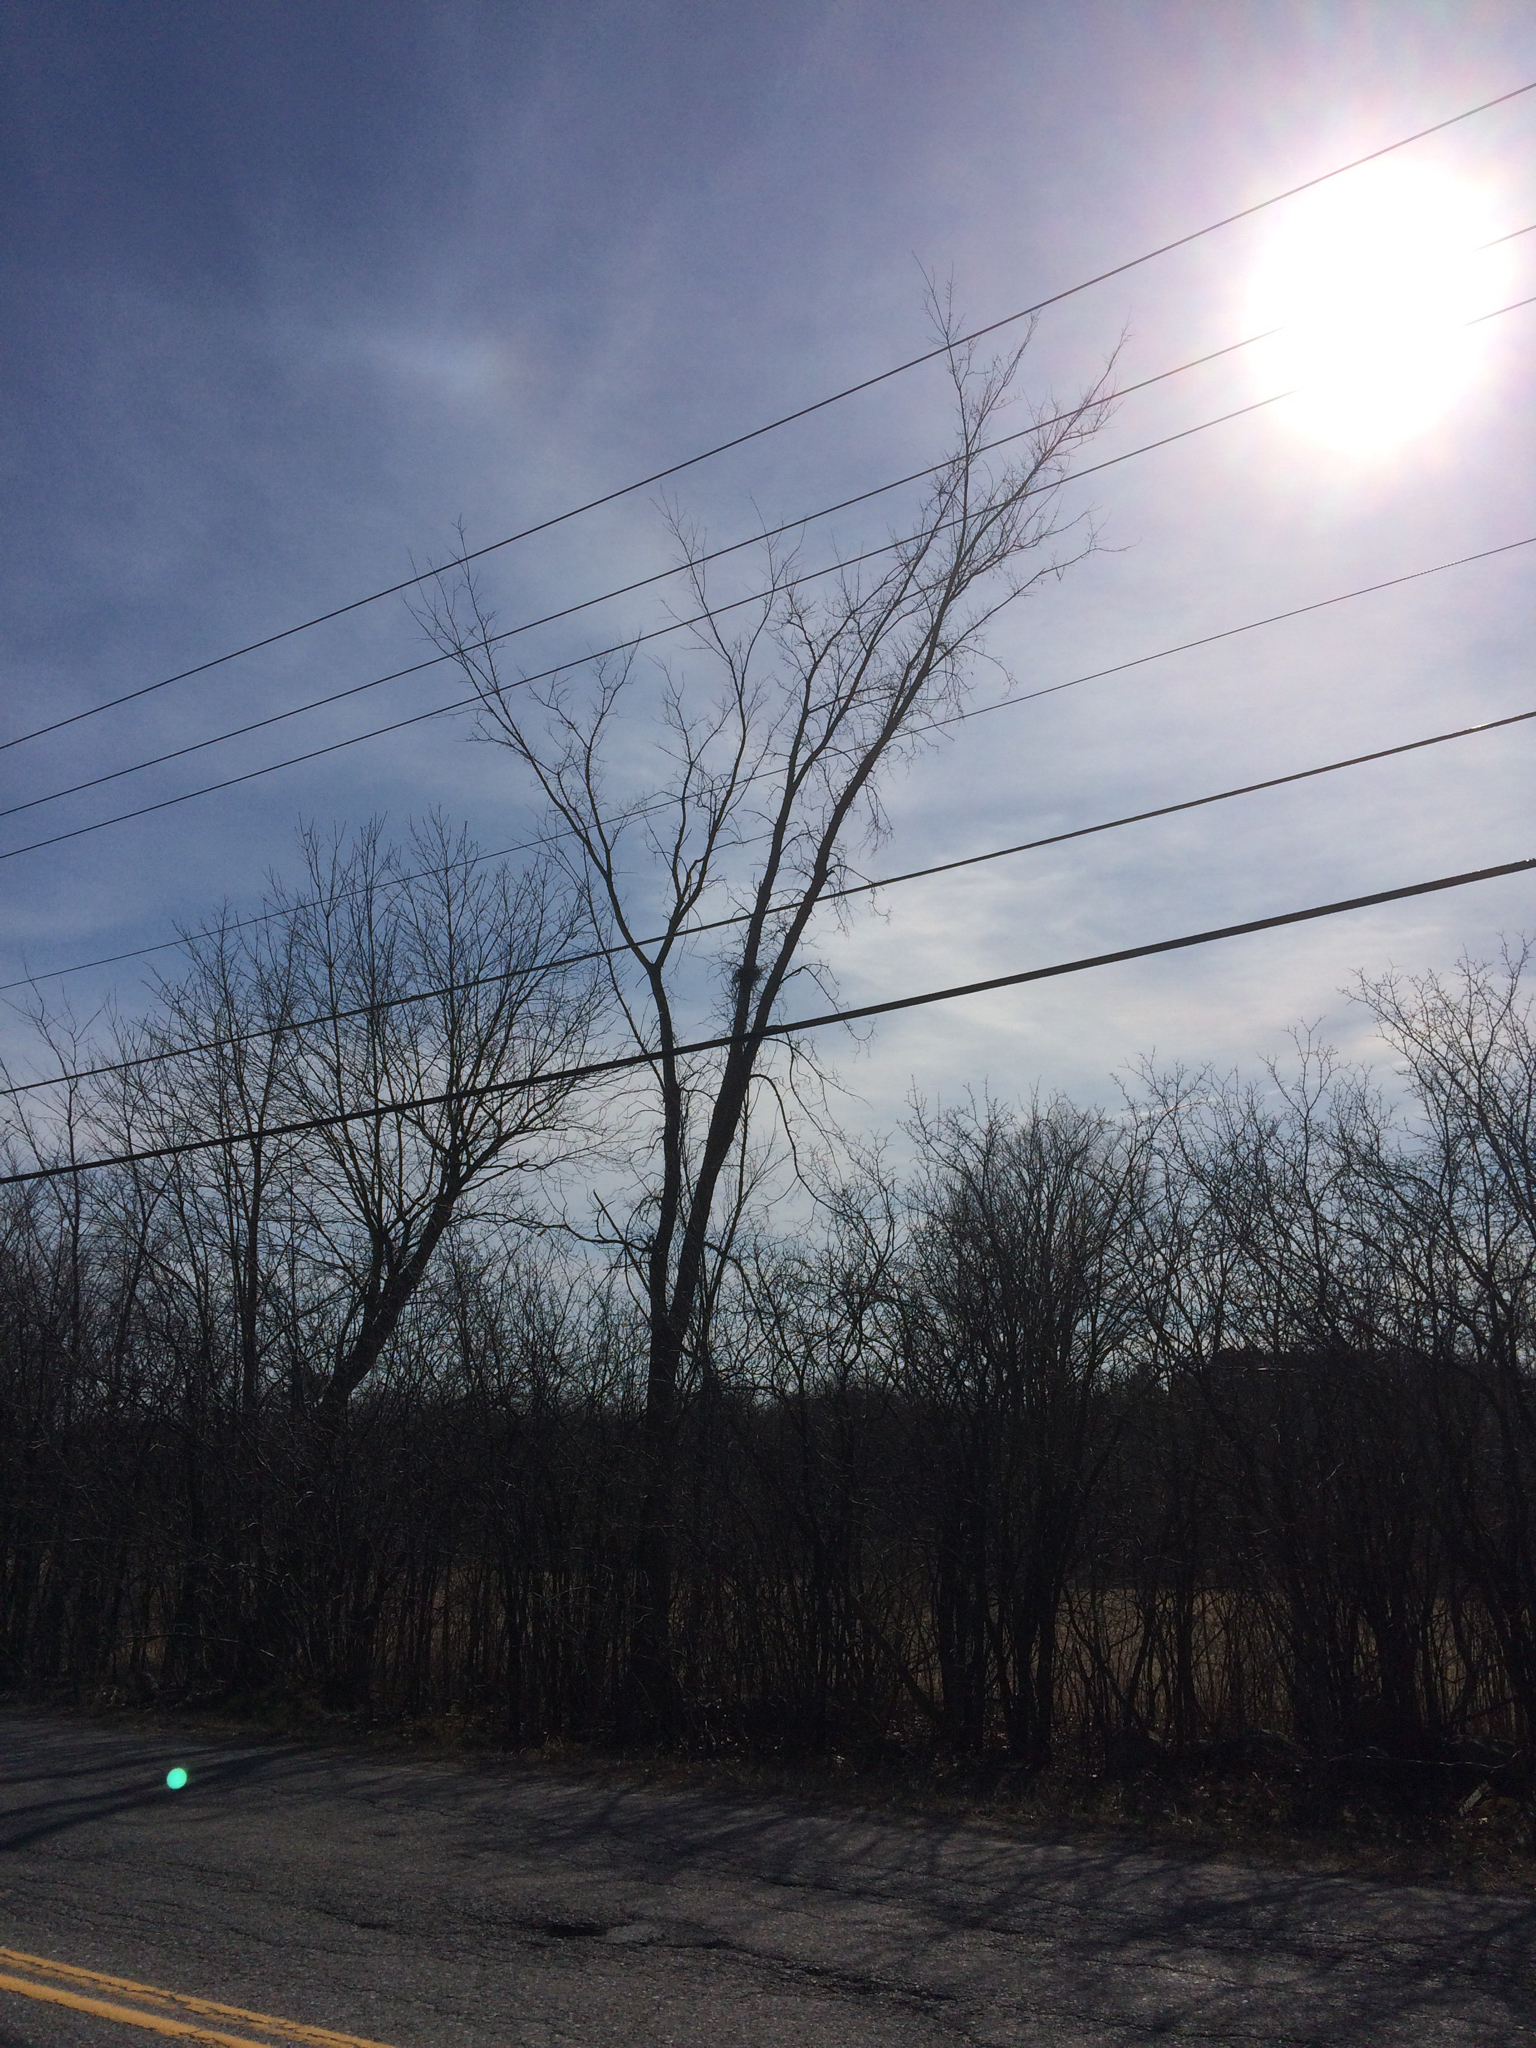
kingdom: Plantae
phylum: Tracheophyta
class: Magnoliopsida
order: Rosales
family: Ulmaceae
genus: Ulmus
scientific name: Ulmus americana
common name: American elm
